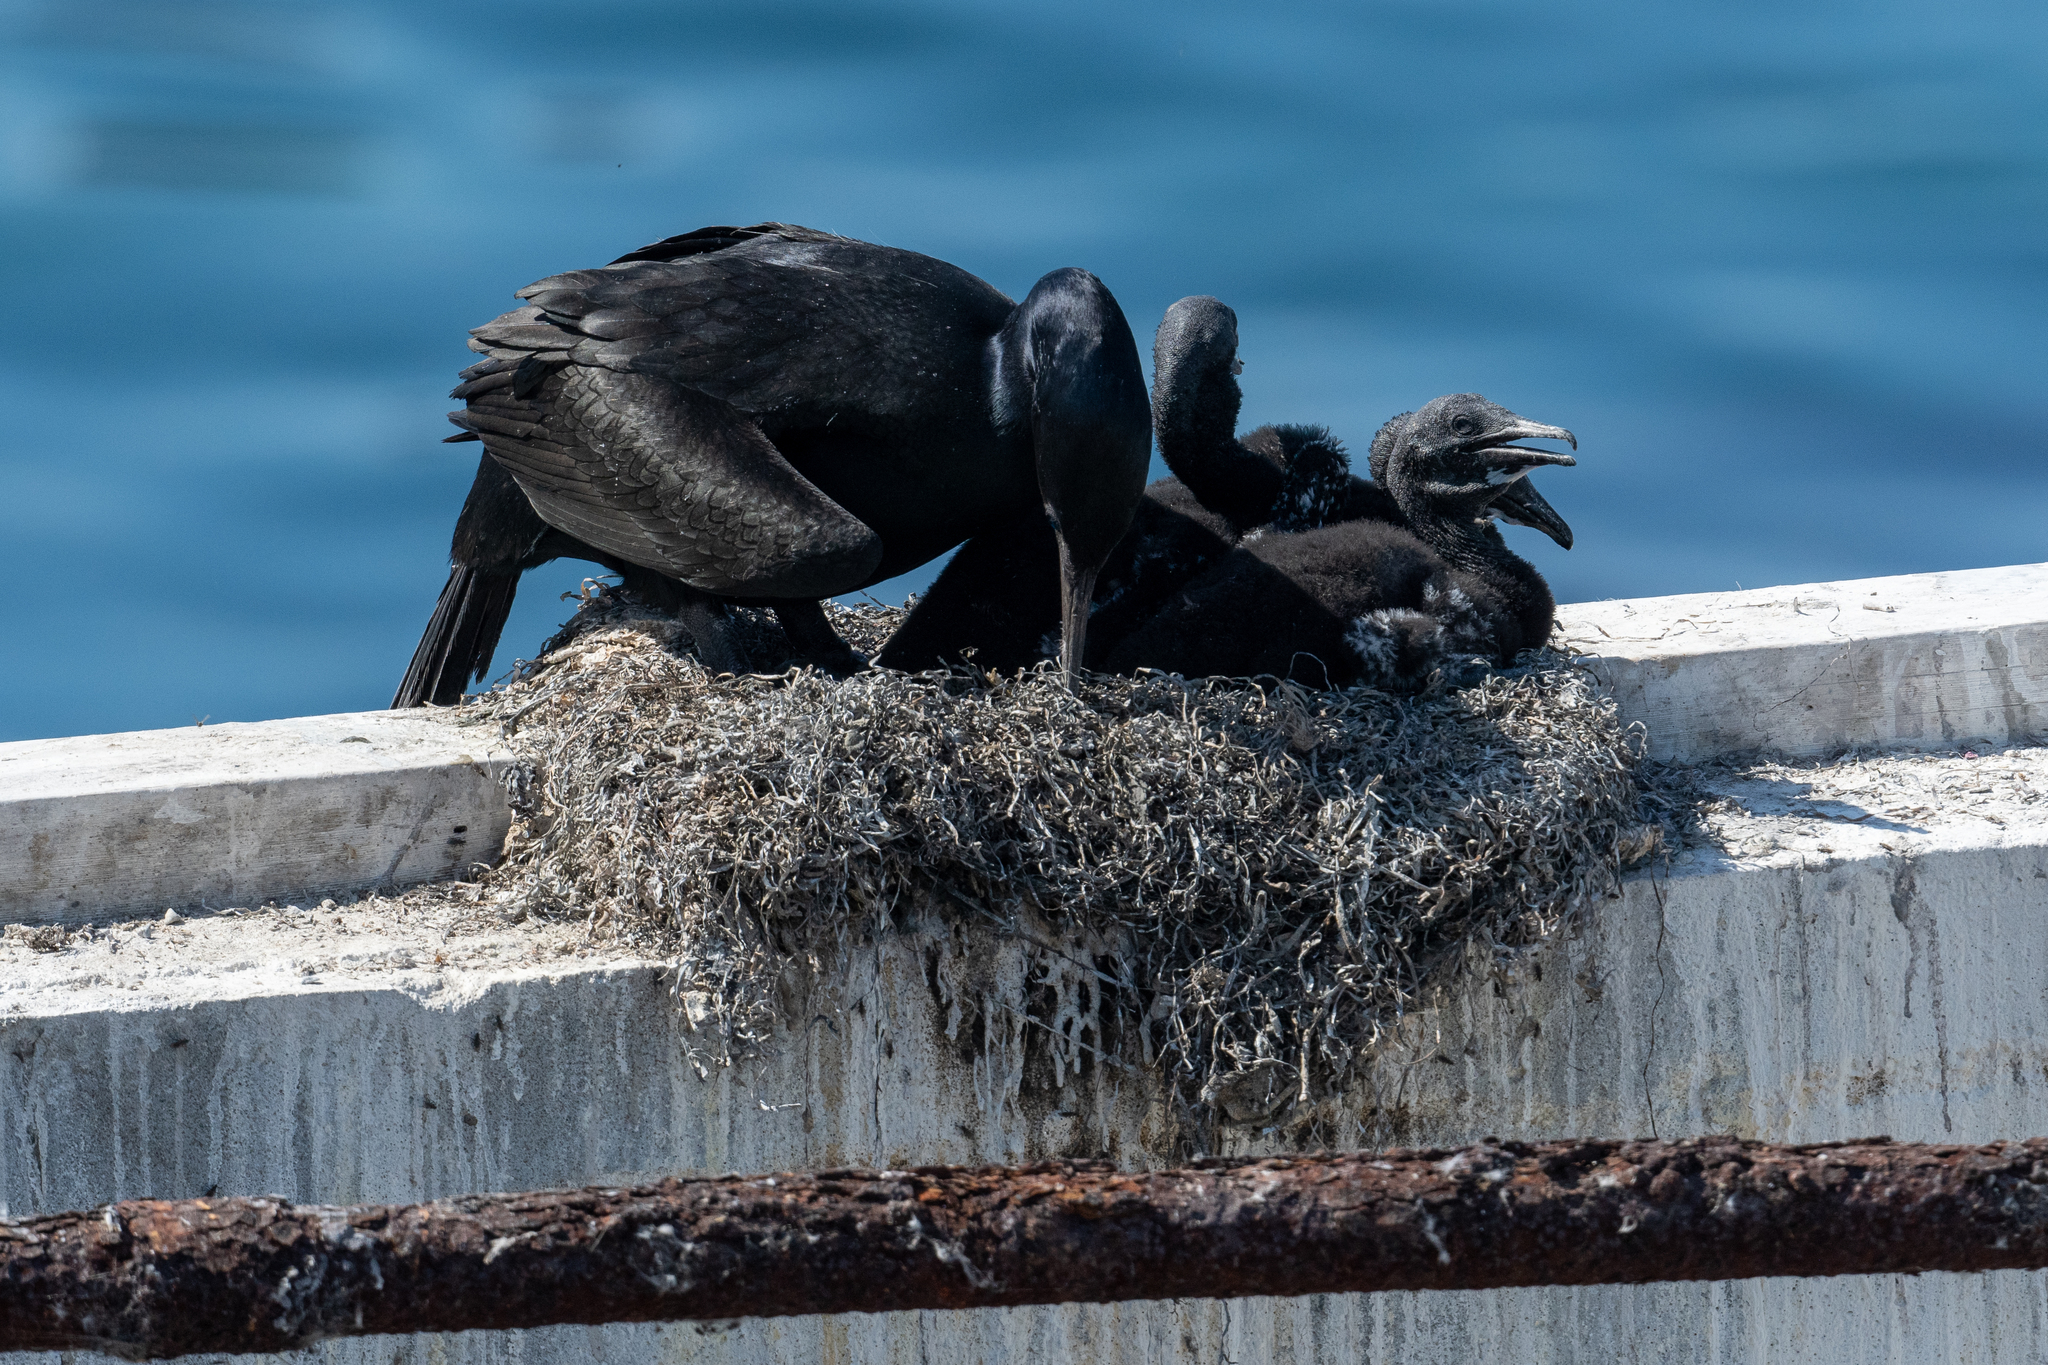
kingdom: Animalia
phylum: Chordata
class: Aves
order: Suliformes
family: Phalacrocoracidae
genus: Urile
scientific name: Urile penicillatus
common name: Brandt's cormorant
